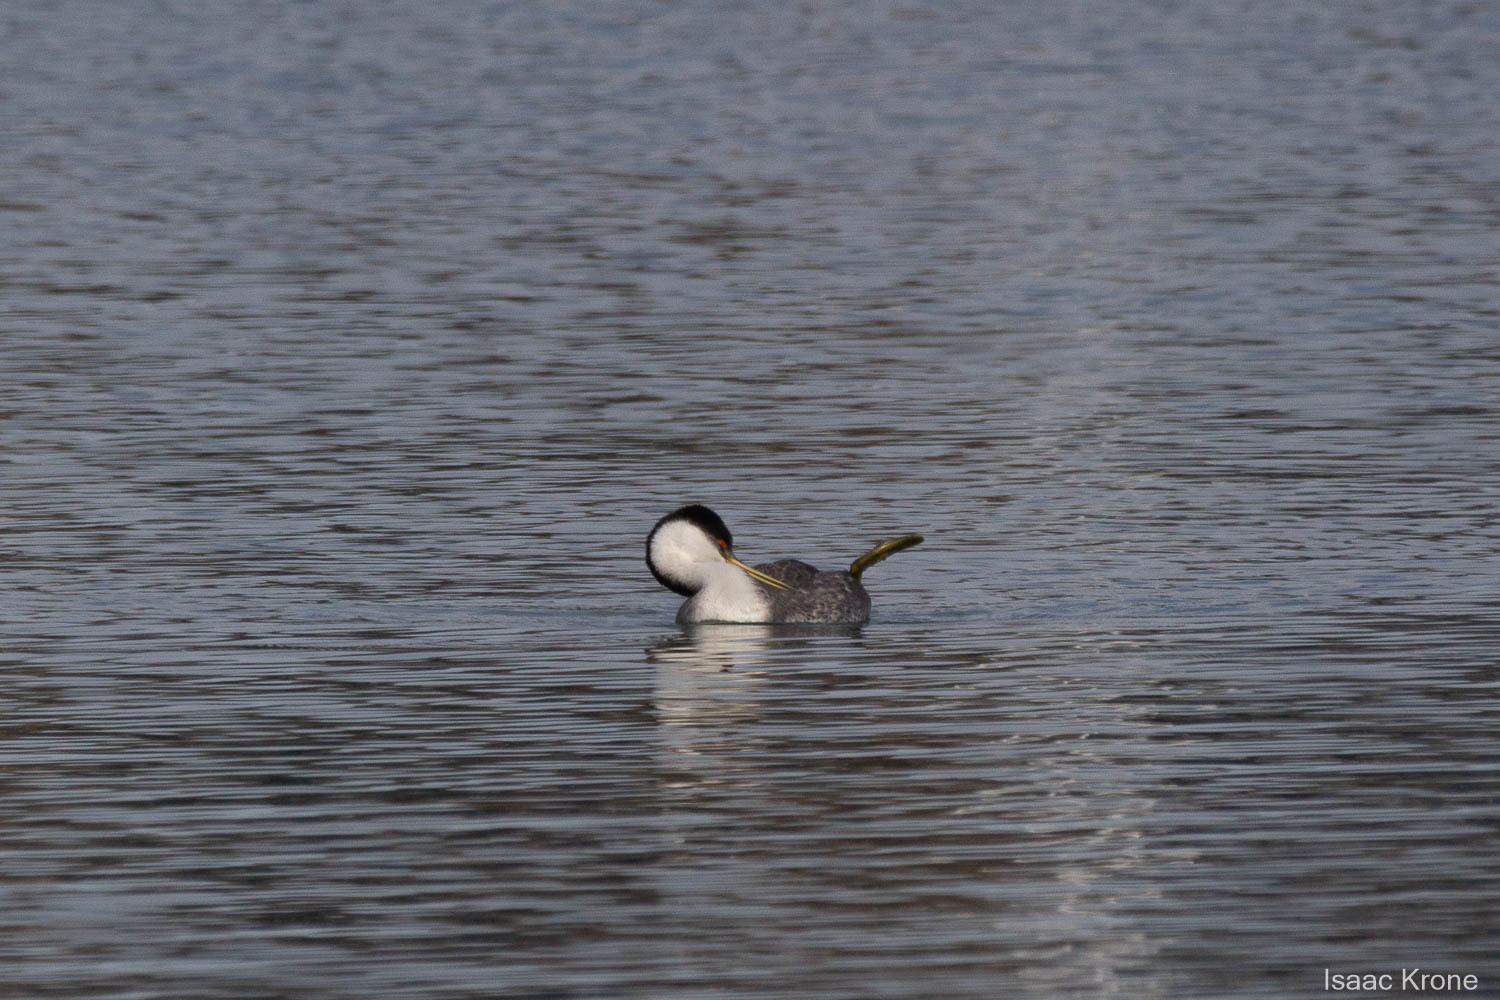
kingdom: Animalia
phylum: Chordata
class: Aves
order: Podicipediformes
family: Podicipedidae
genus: Aechmophorus
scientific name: Aechmophorus occidentalis
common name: Western grebe
